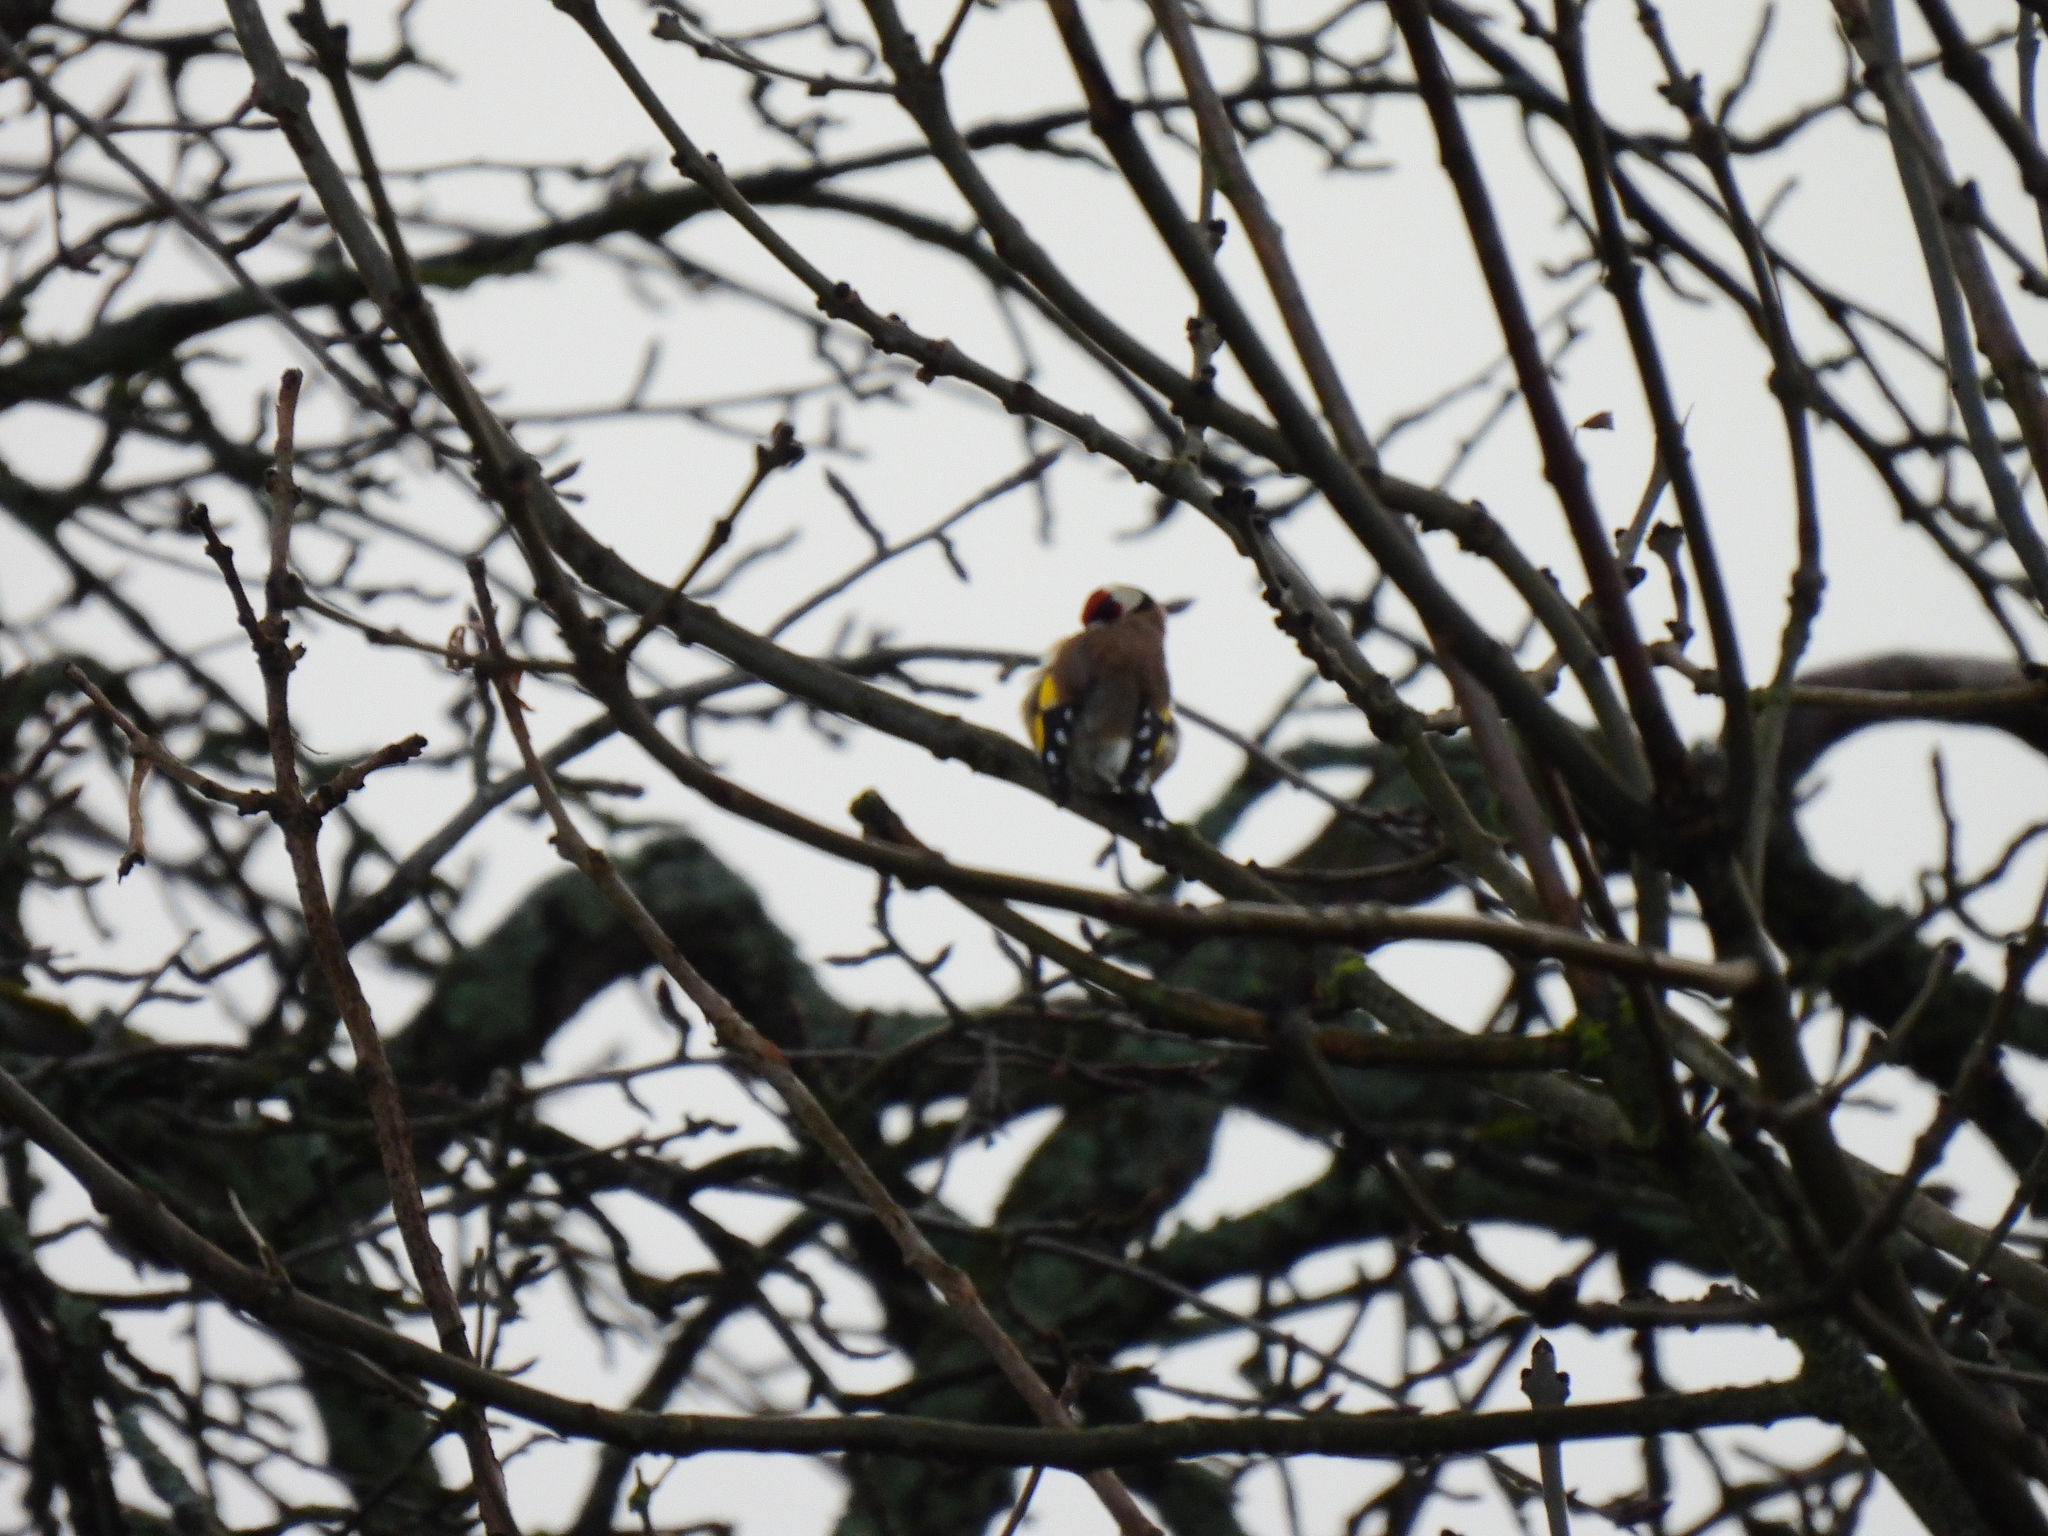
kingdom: Animalia
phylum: Chordata
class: Aves
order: Passeriformes
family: Fringillidae
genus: Carduelis
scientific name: Carduelis carduelis
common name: European goldfinch
